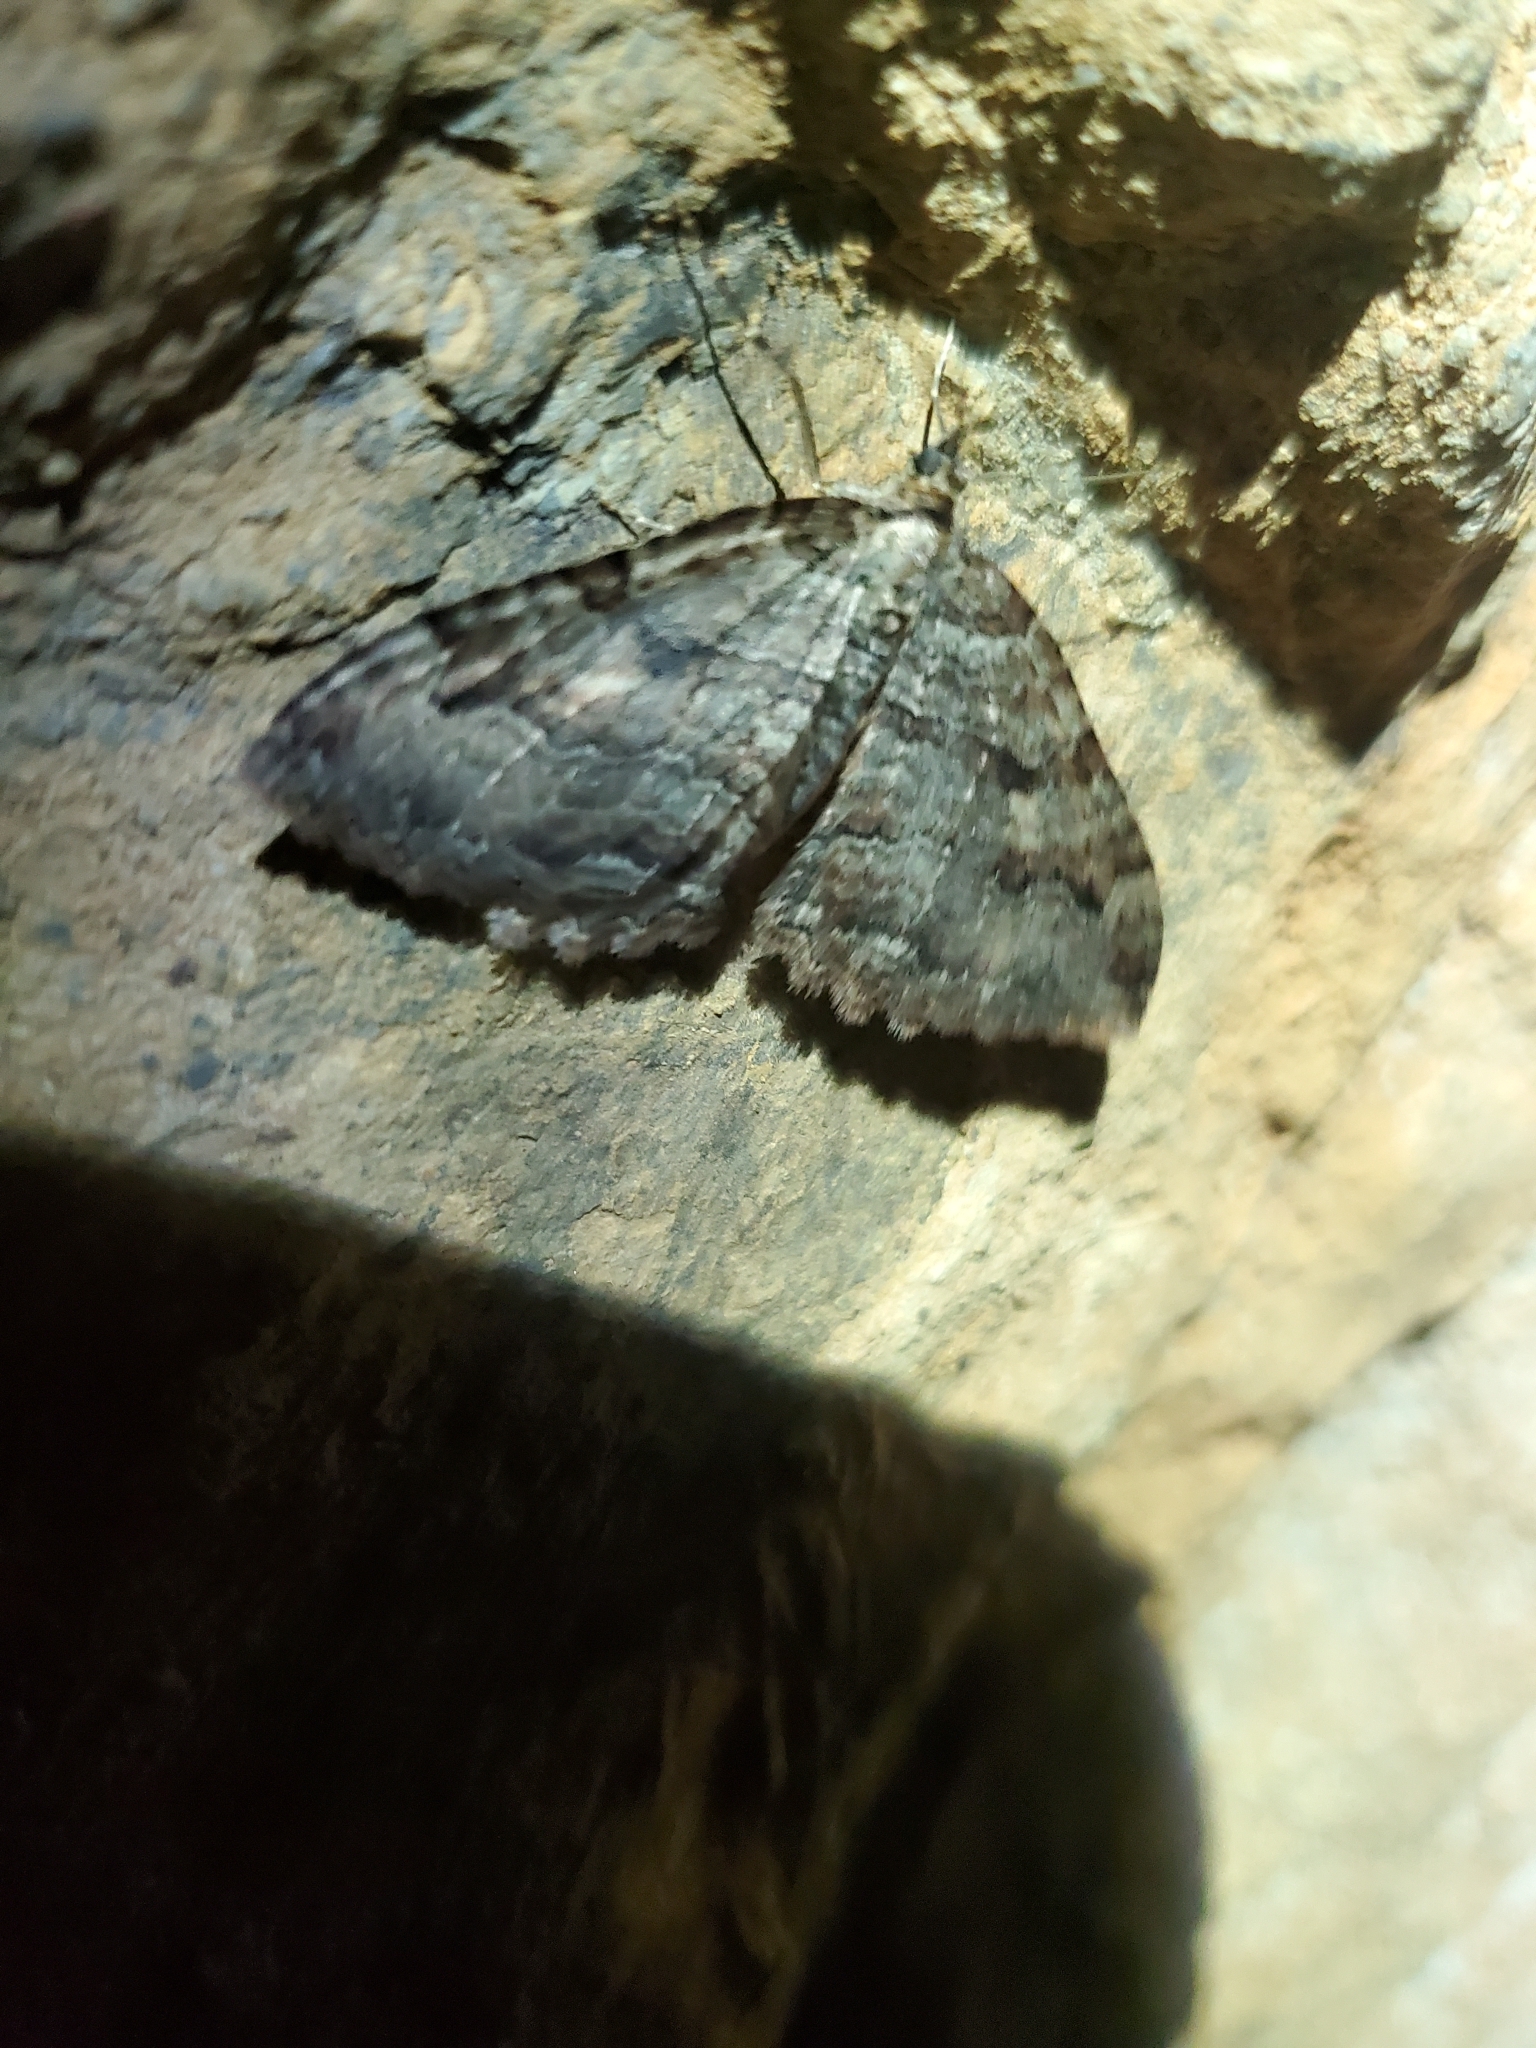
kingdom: Animalia
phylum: Arthropoda
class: Insecta
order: Lepidoptera
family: Geometridae
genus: Triphosa
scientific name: Triphosa haesitata
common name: Tissue moth
